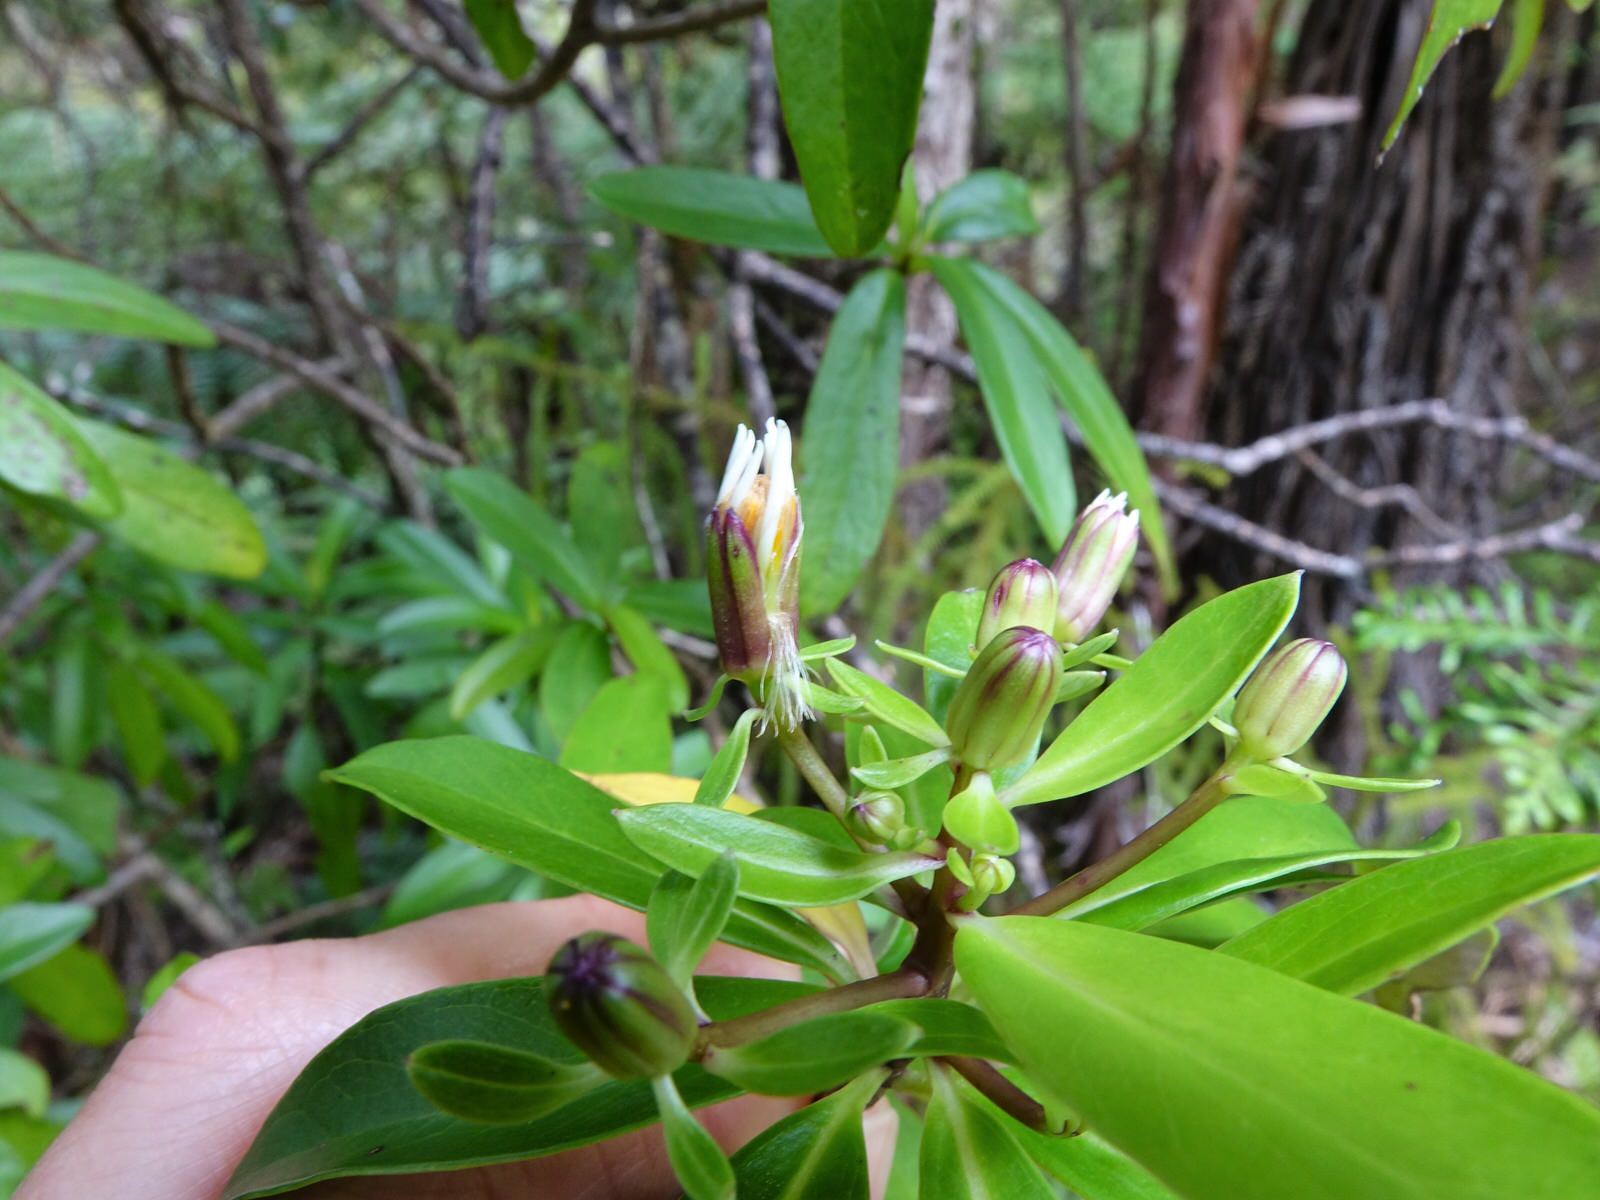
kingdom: Plantae
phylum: Tracheophyta
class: Magnoliopsida
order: Asterales
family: Asteraceae
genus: Brachyglottis
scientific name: Brachyglottis kirkii
